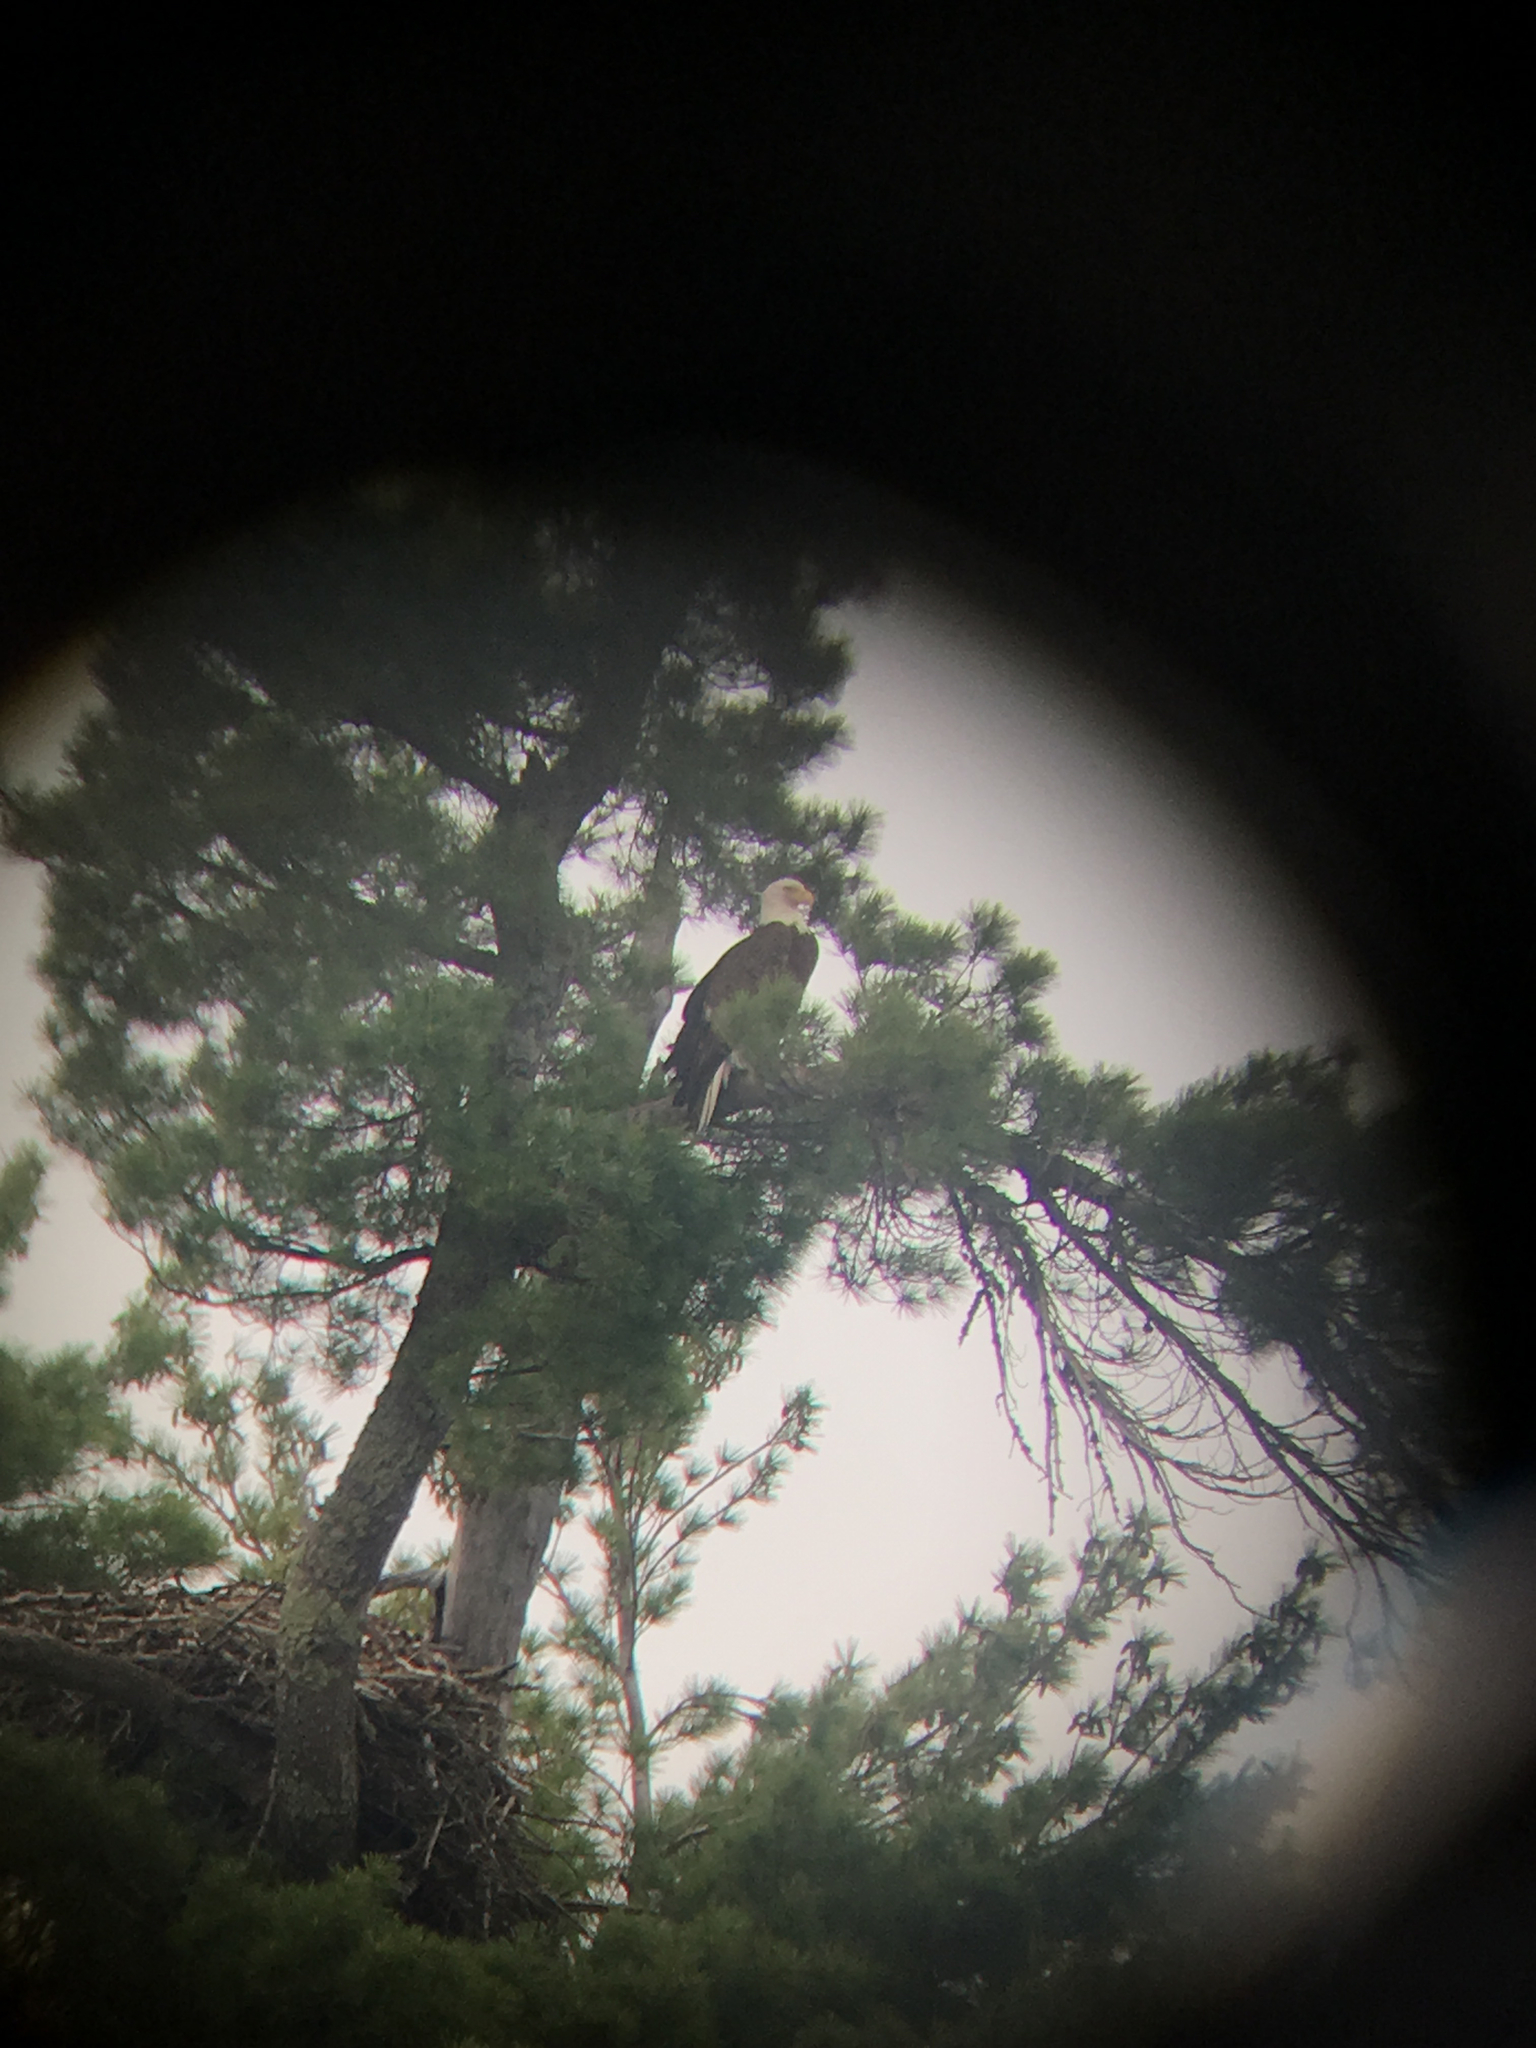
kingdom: Animalia
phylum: Chordata
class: Aves
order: Accipitriformes
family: Accipitridae
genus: Haliaeetus
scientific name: Haliaeetus leucocephalus
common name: Bald eagle
